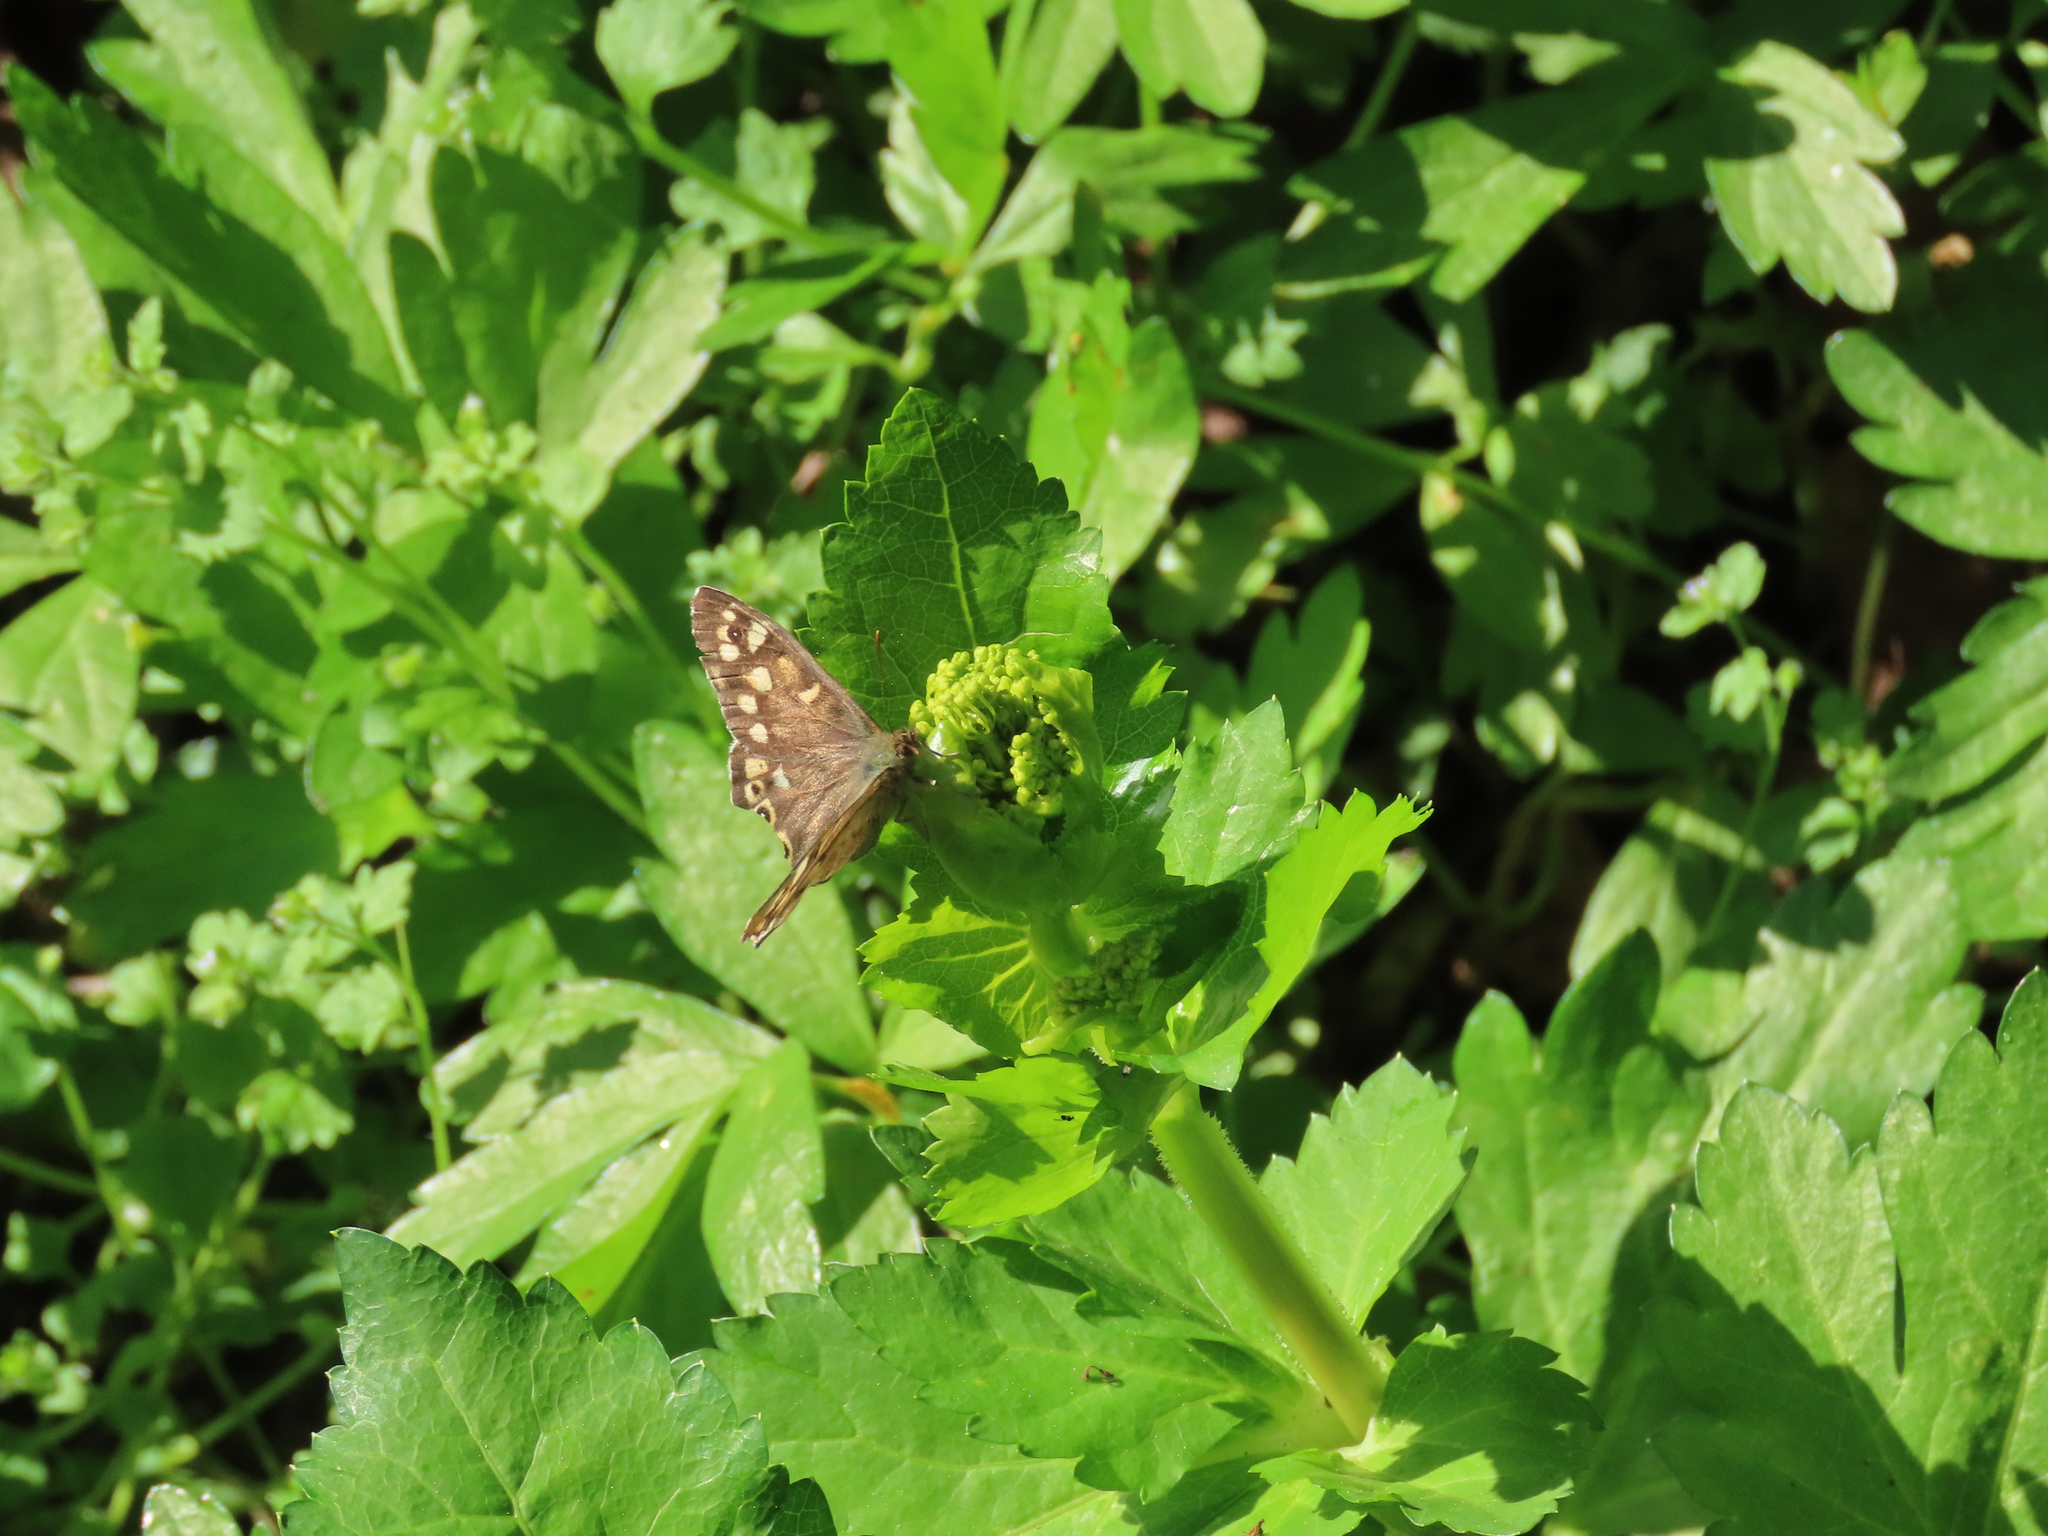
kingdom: Animalia
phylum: Arthropoda
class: Insecta
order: Lepidoptera
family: Nymphalidae
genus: Pararge
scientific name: Pararge aegeria
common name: Speckled wood
